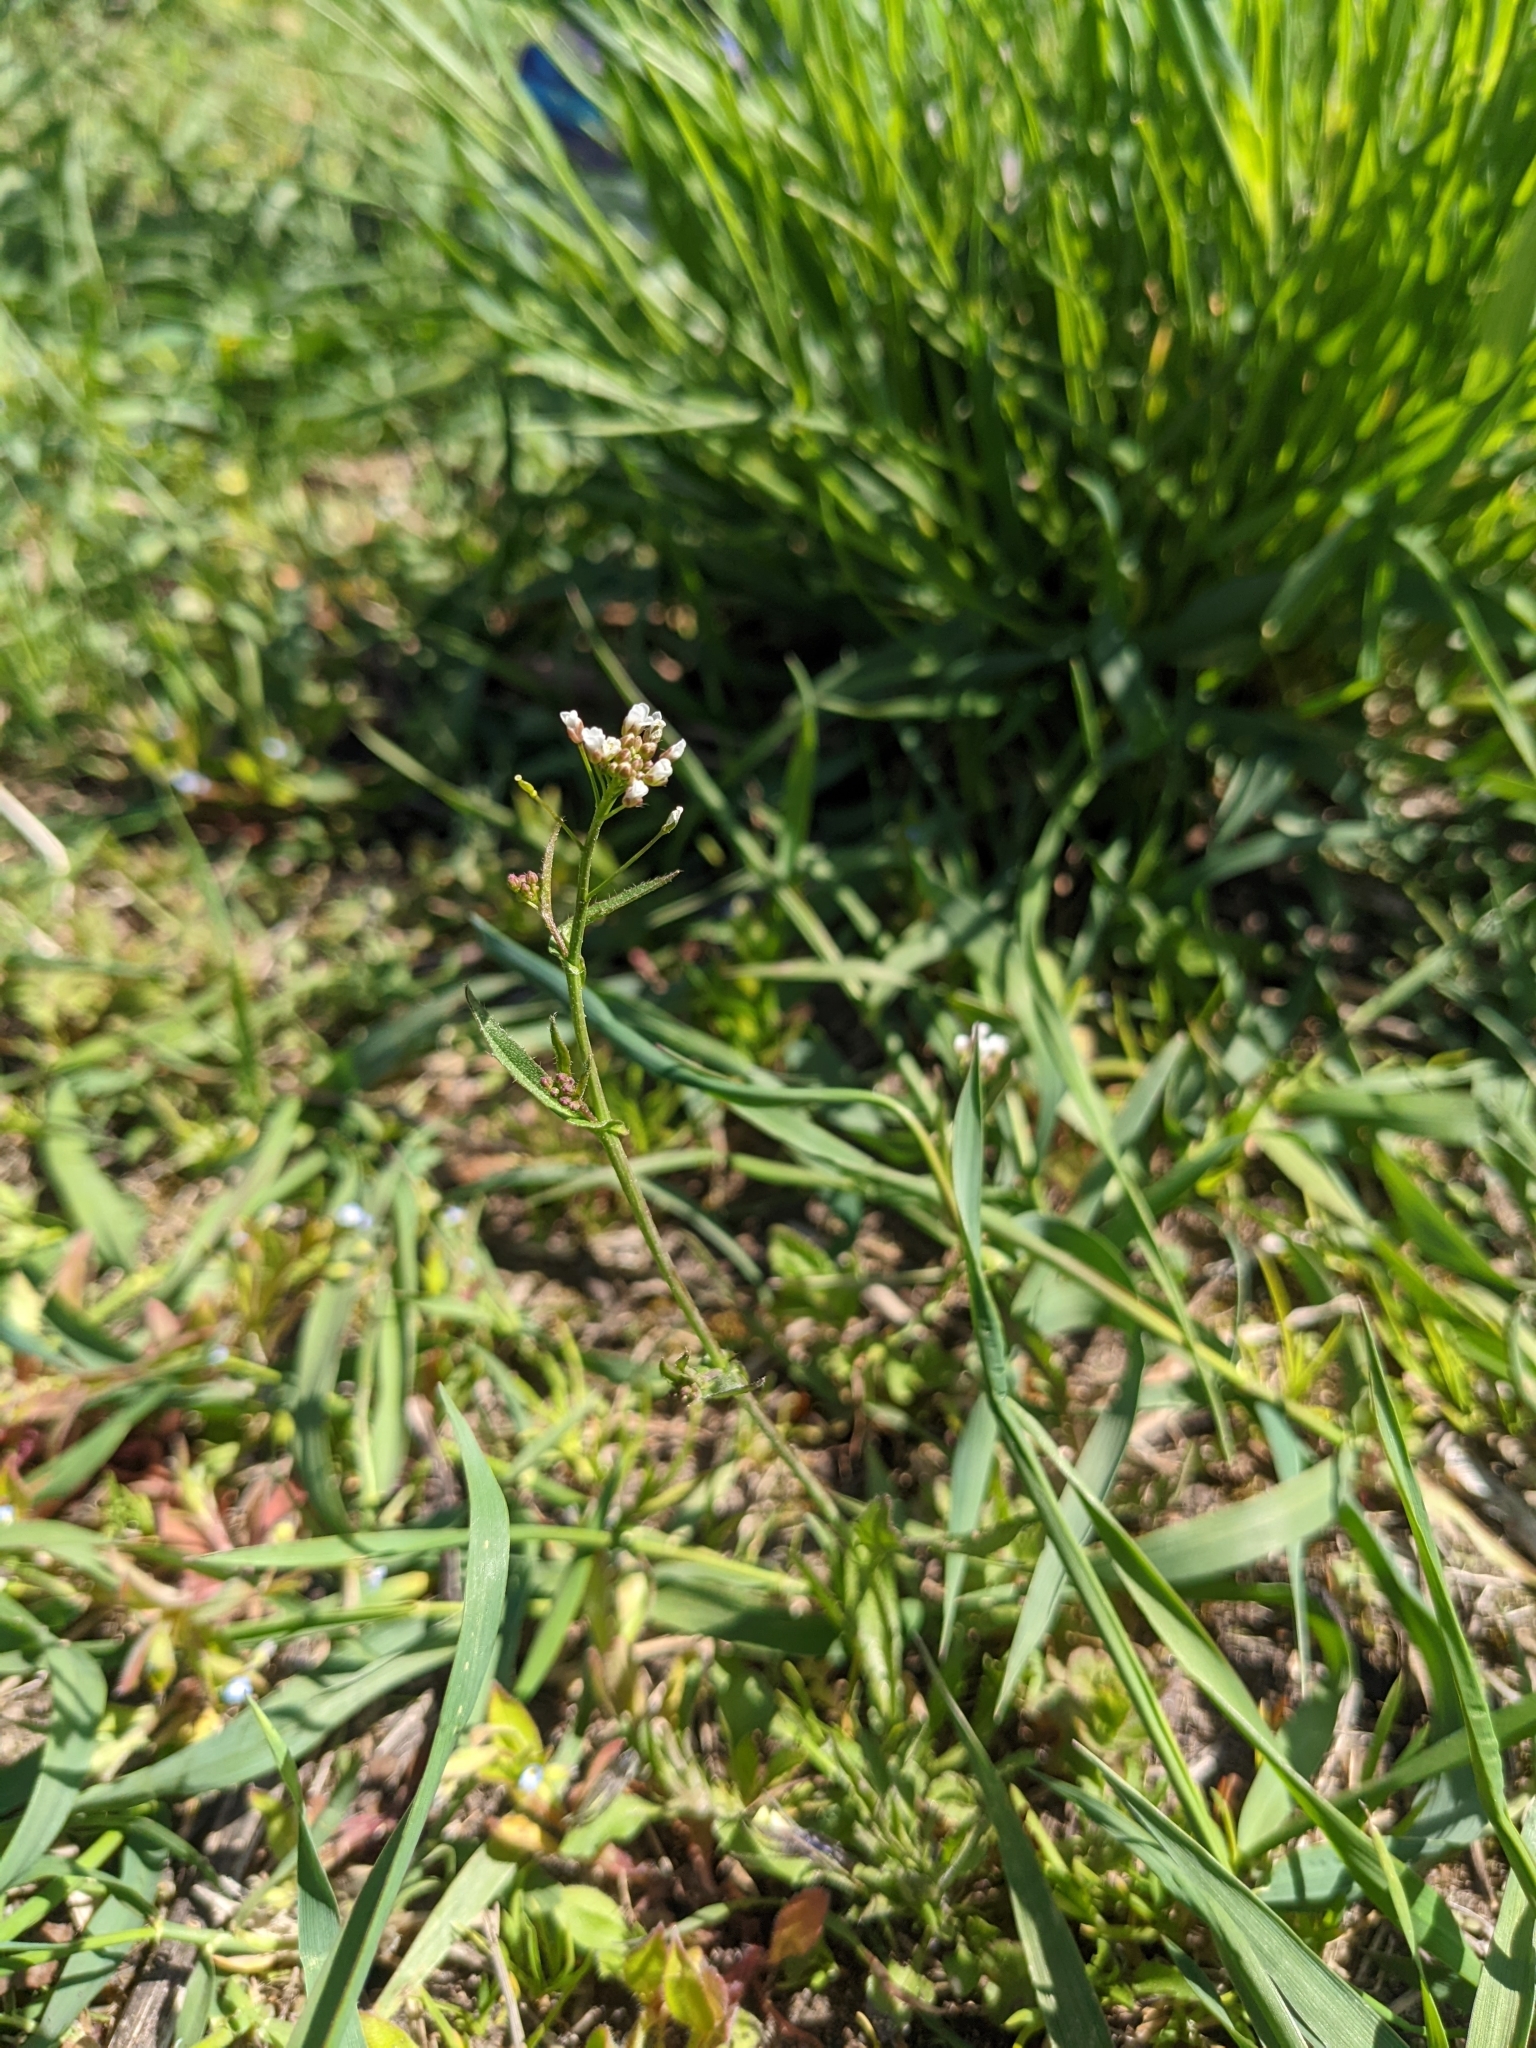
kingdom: Plantae
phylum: Tracheophyta
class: Magnoliopsida
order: Brassicales
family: Brassicaceae
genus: Capsella
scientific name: Capsella bursa-pastoris
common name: Shepherd's purse
